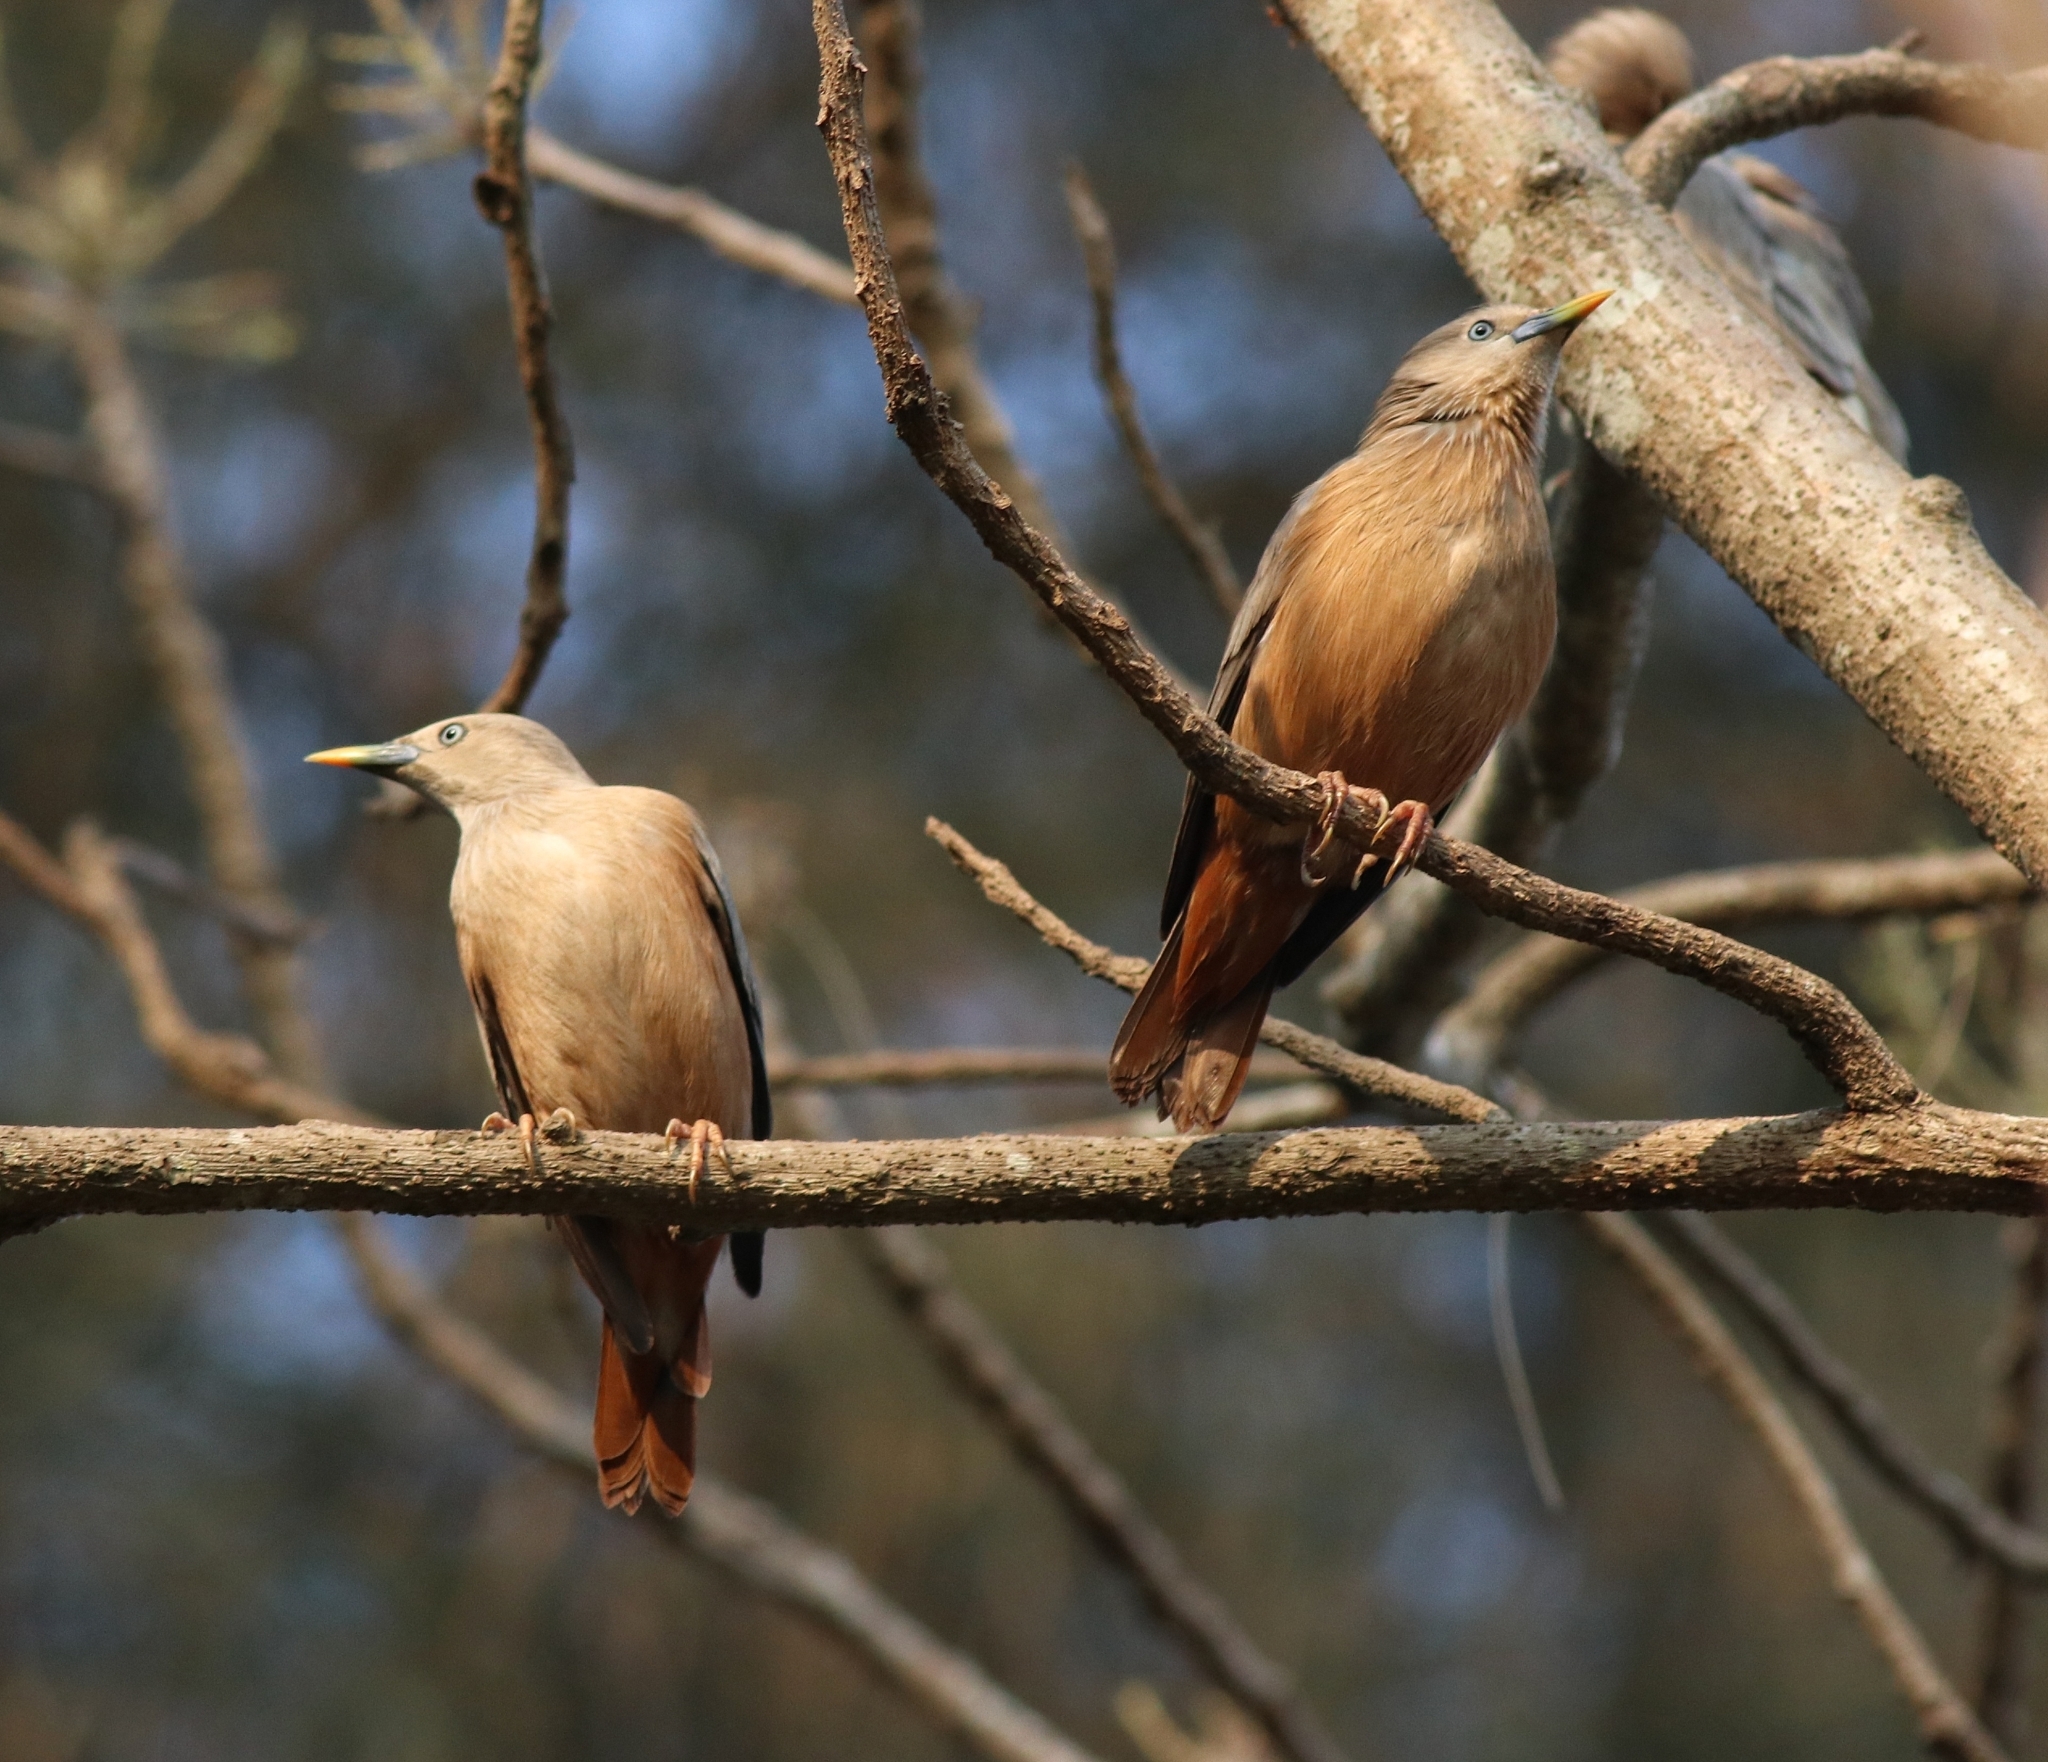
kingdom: Animalia
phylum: Chordata
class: Aves
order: Passeriformes
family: Sturnidae
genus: Sturnia
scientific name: Sturnia malabarica
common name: Chestnut-tailed starling
